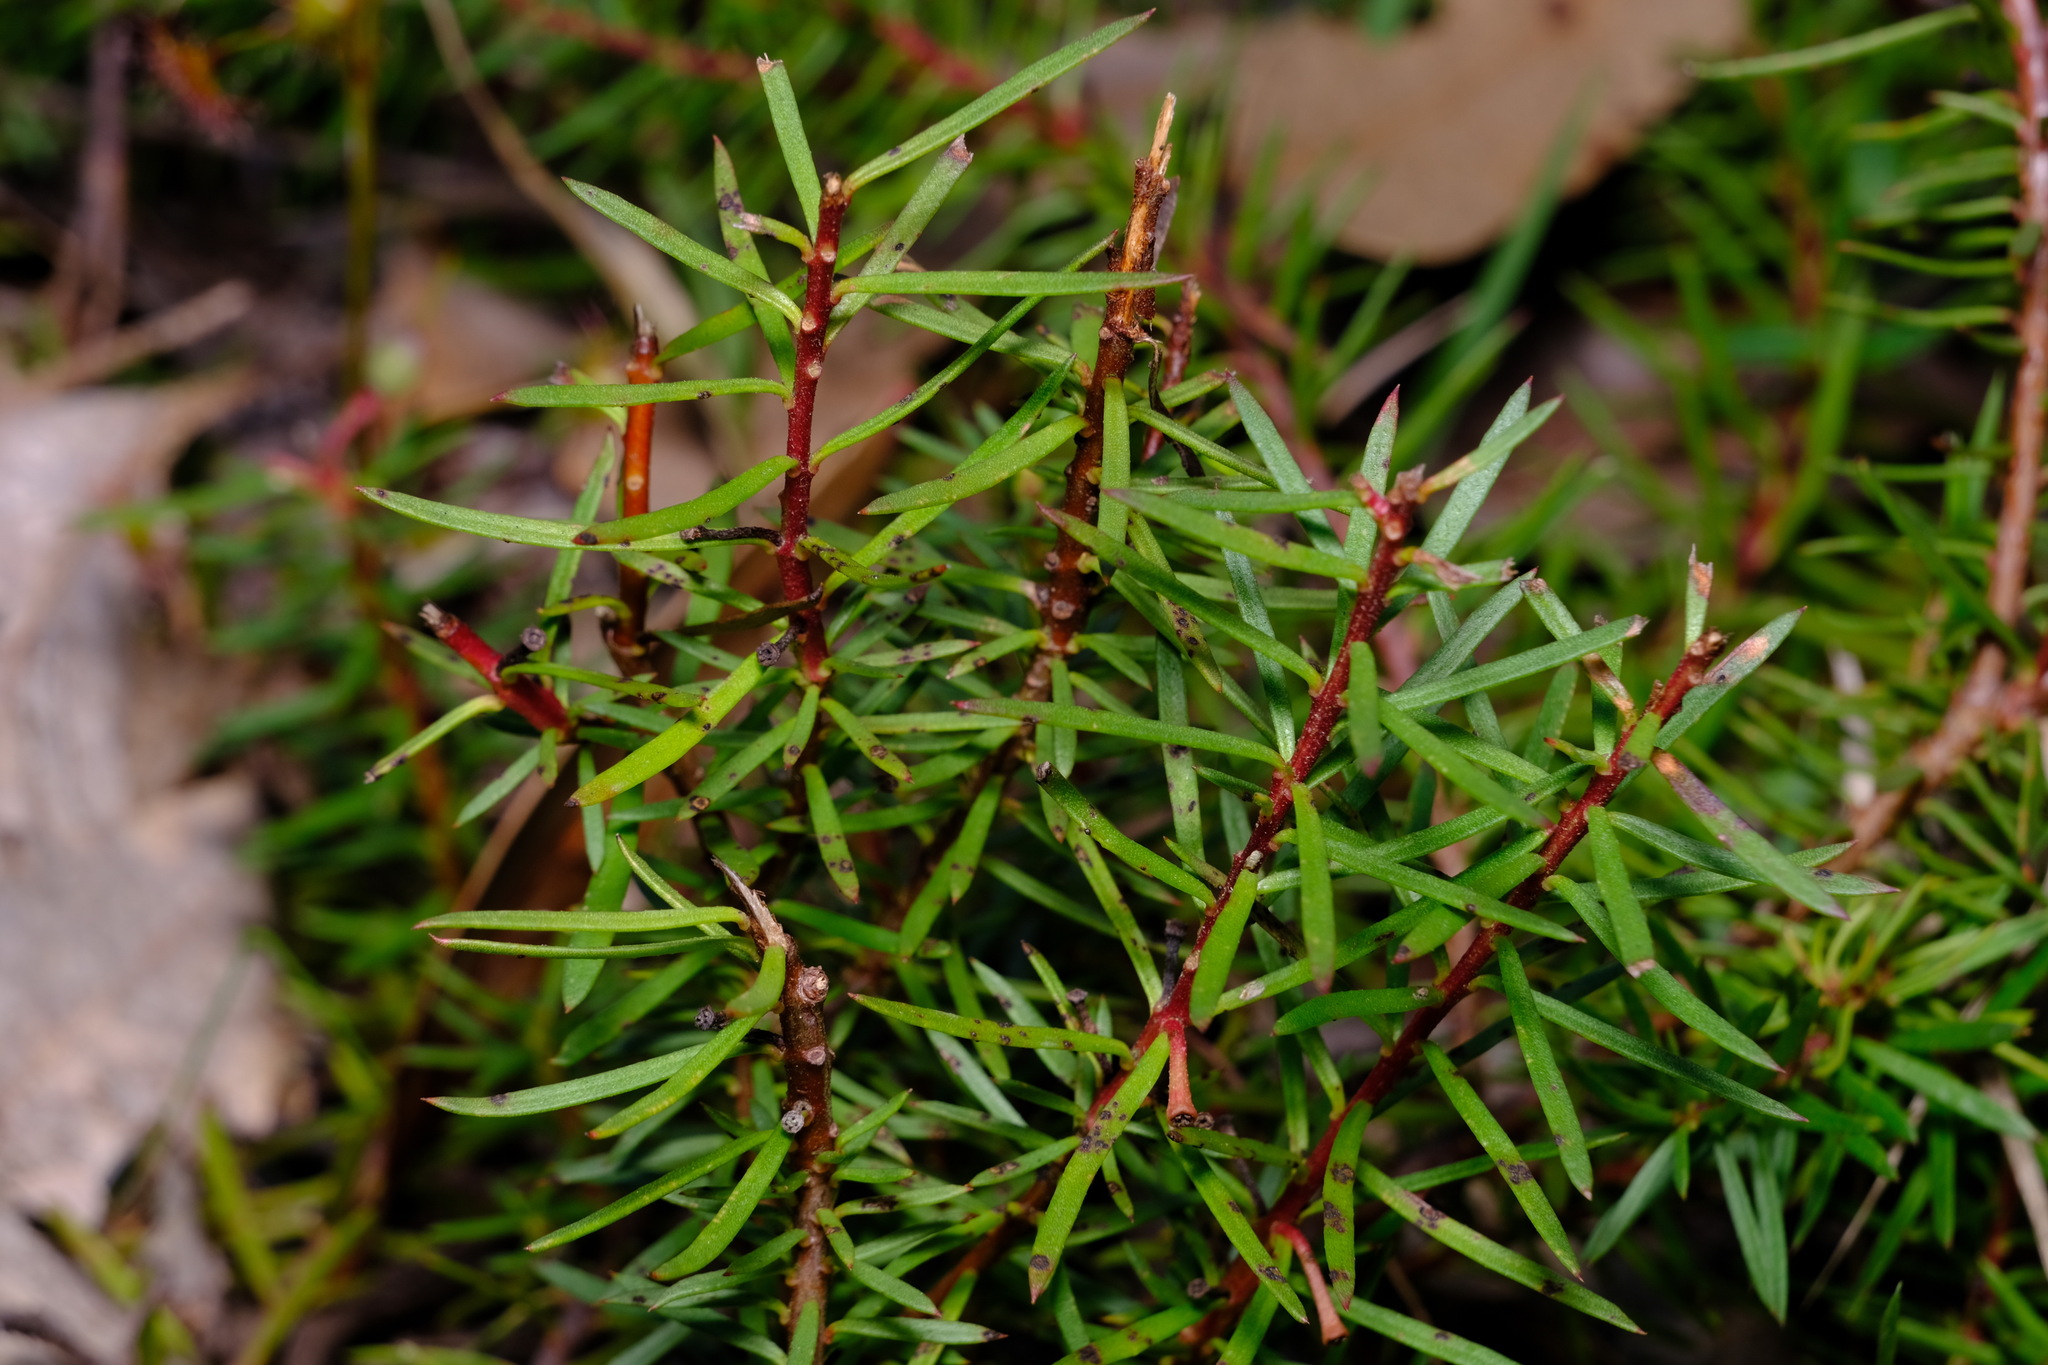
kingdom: Plantae
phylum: Tracheophyta
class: Magnoliopsida
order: Proteales
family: Proteaceae
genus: Persoonia
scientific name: Persoonia chamaepeuce
